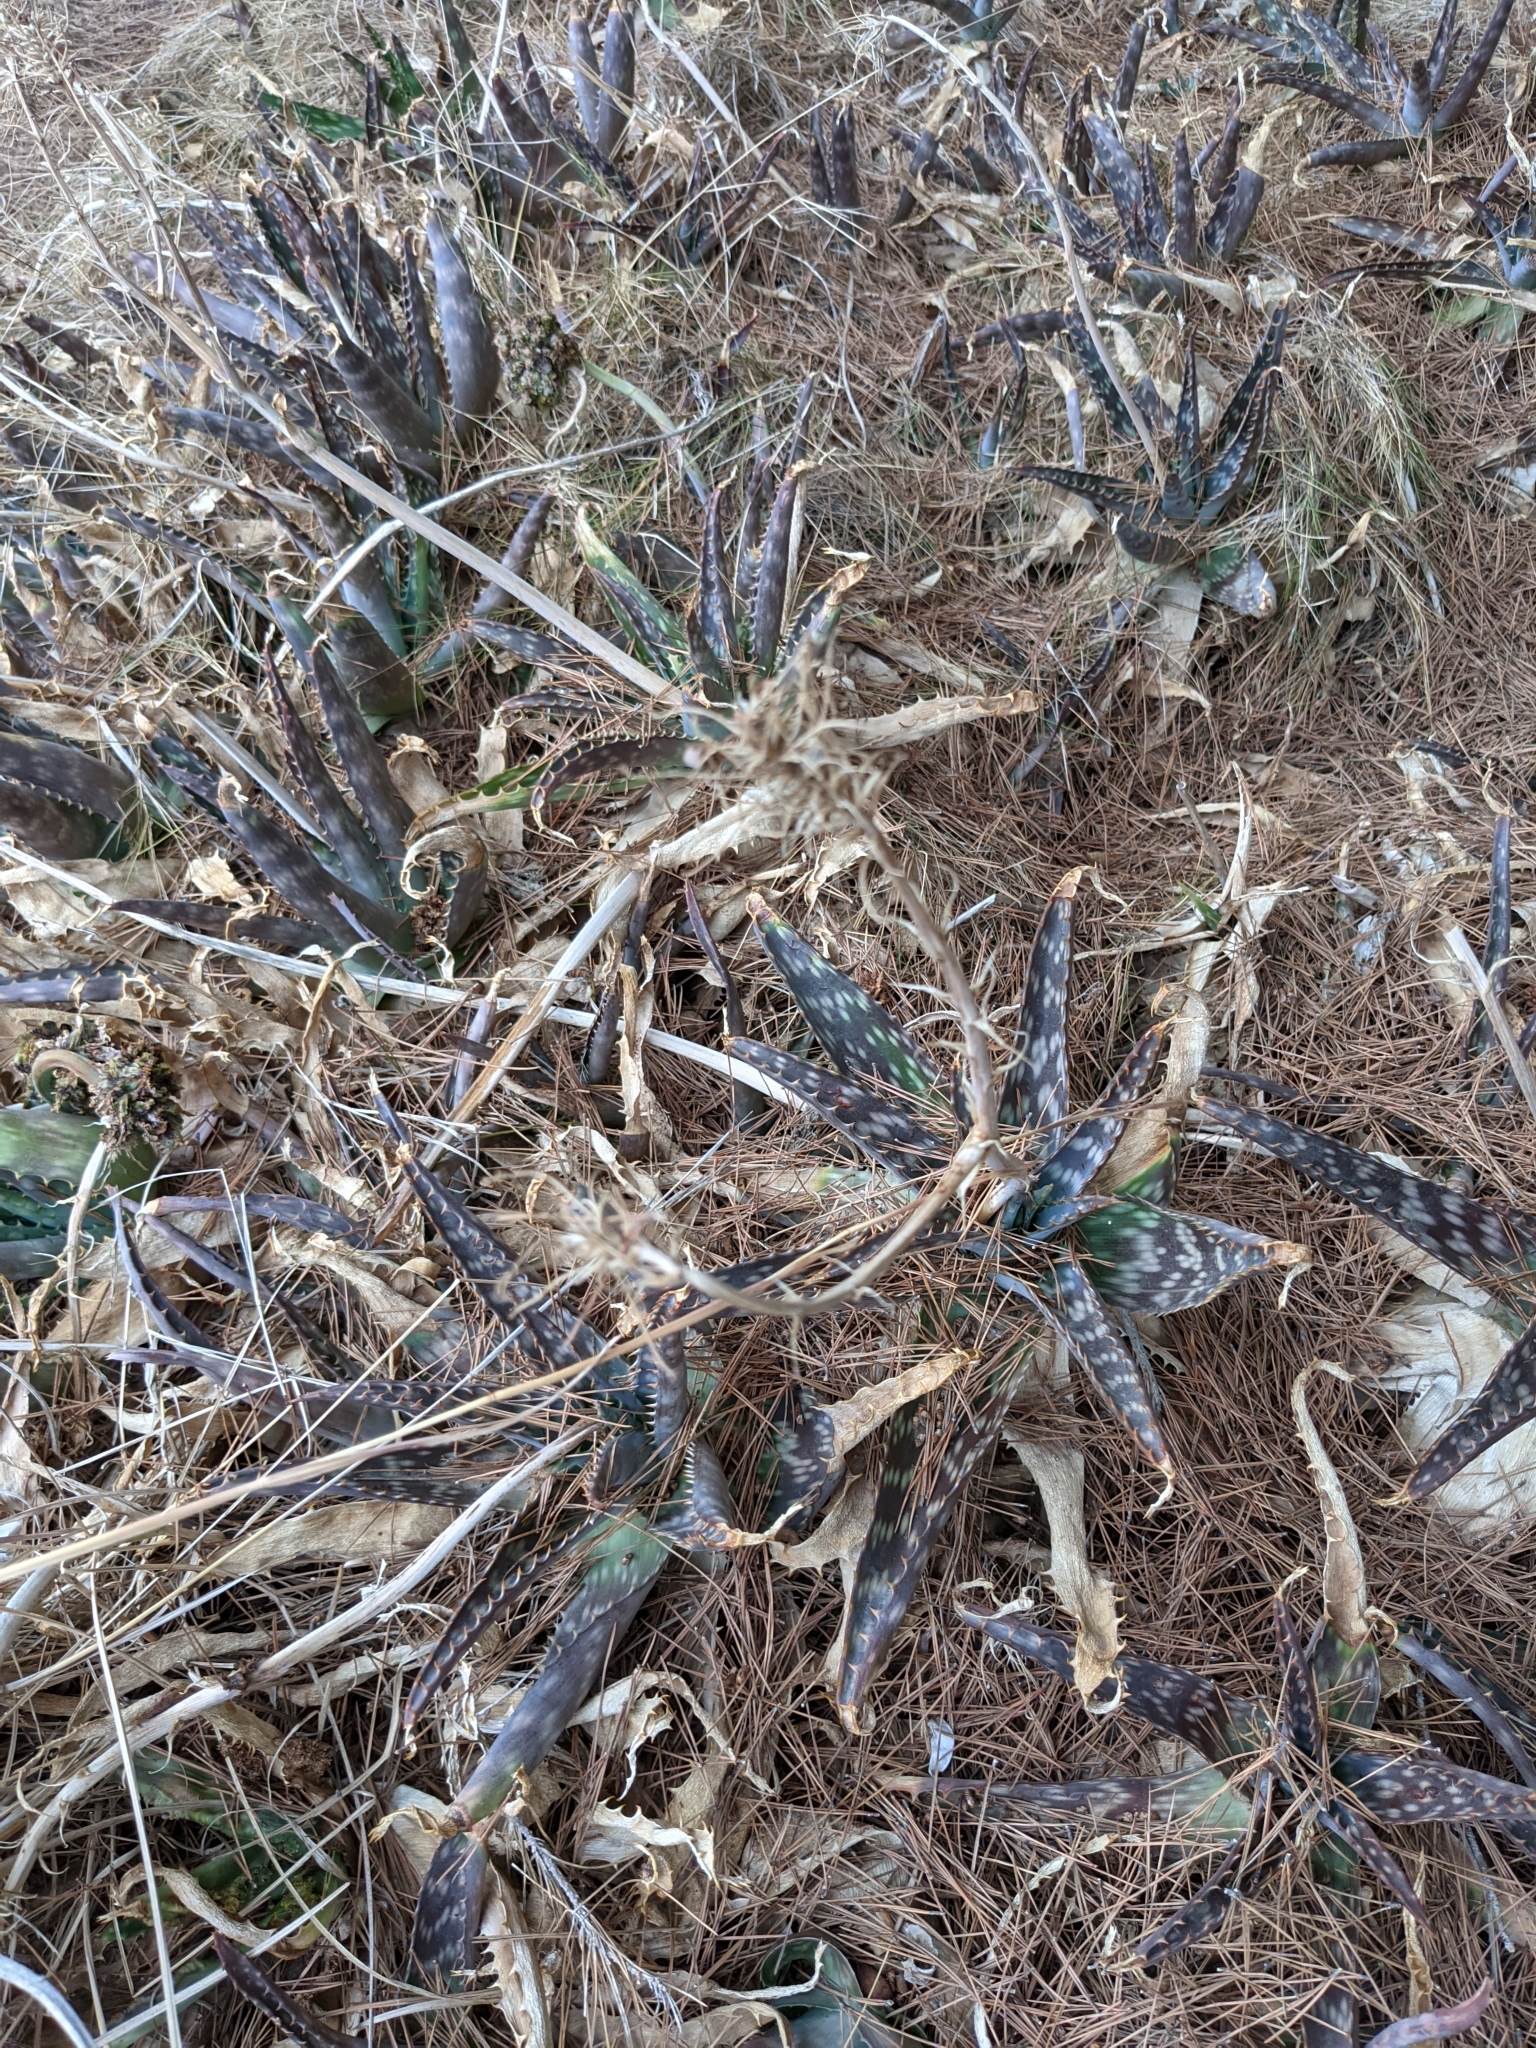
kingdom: Plantae
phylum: Tracheophyta
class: Liliopsida
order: Asparagales
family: Asphodelaceae
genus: Aloe
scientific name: Aloe maculata
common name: Broadleaf aloe
